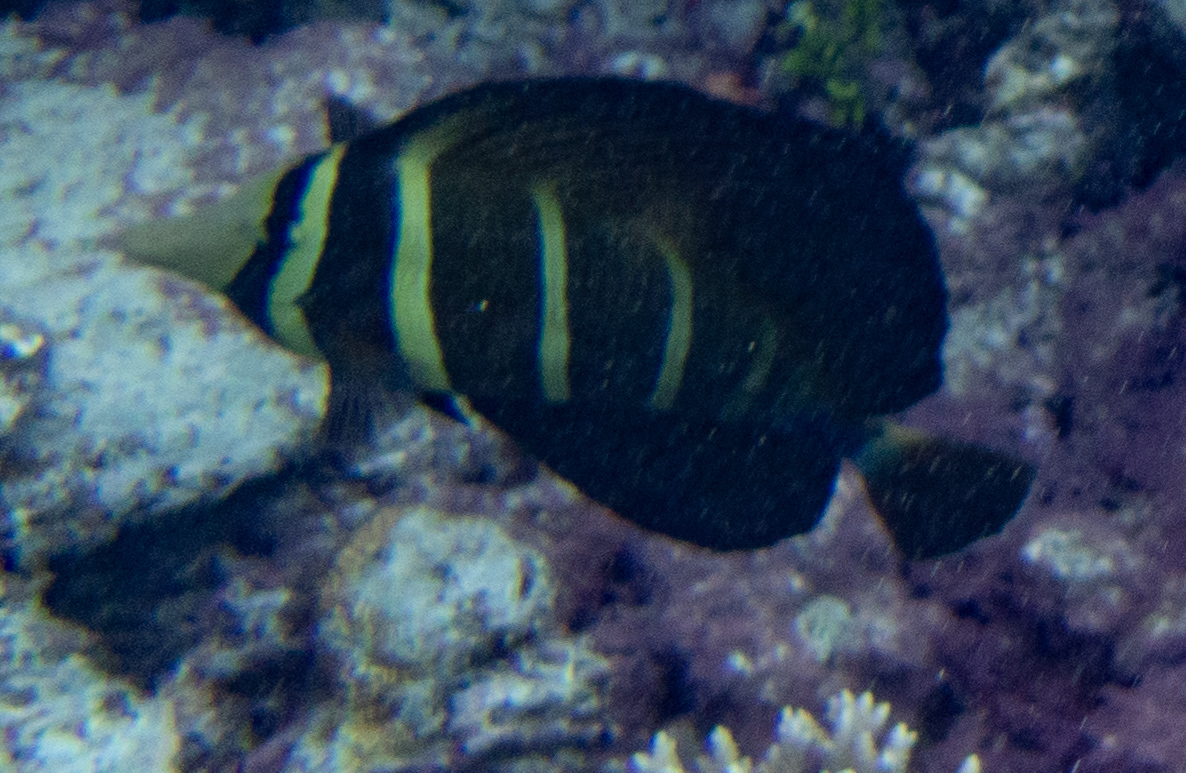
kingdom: Animalia
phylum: Chordata
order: Perciformes
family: Acanthuridae
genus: Zebrasoma
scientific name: Zebrasoma veliferum
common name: Sailfin surgeonfish
